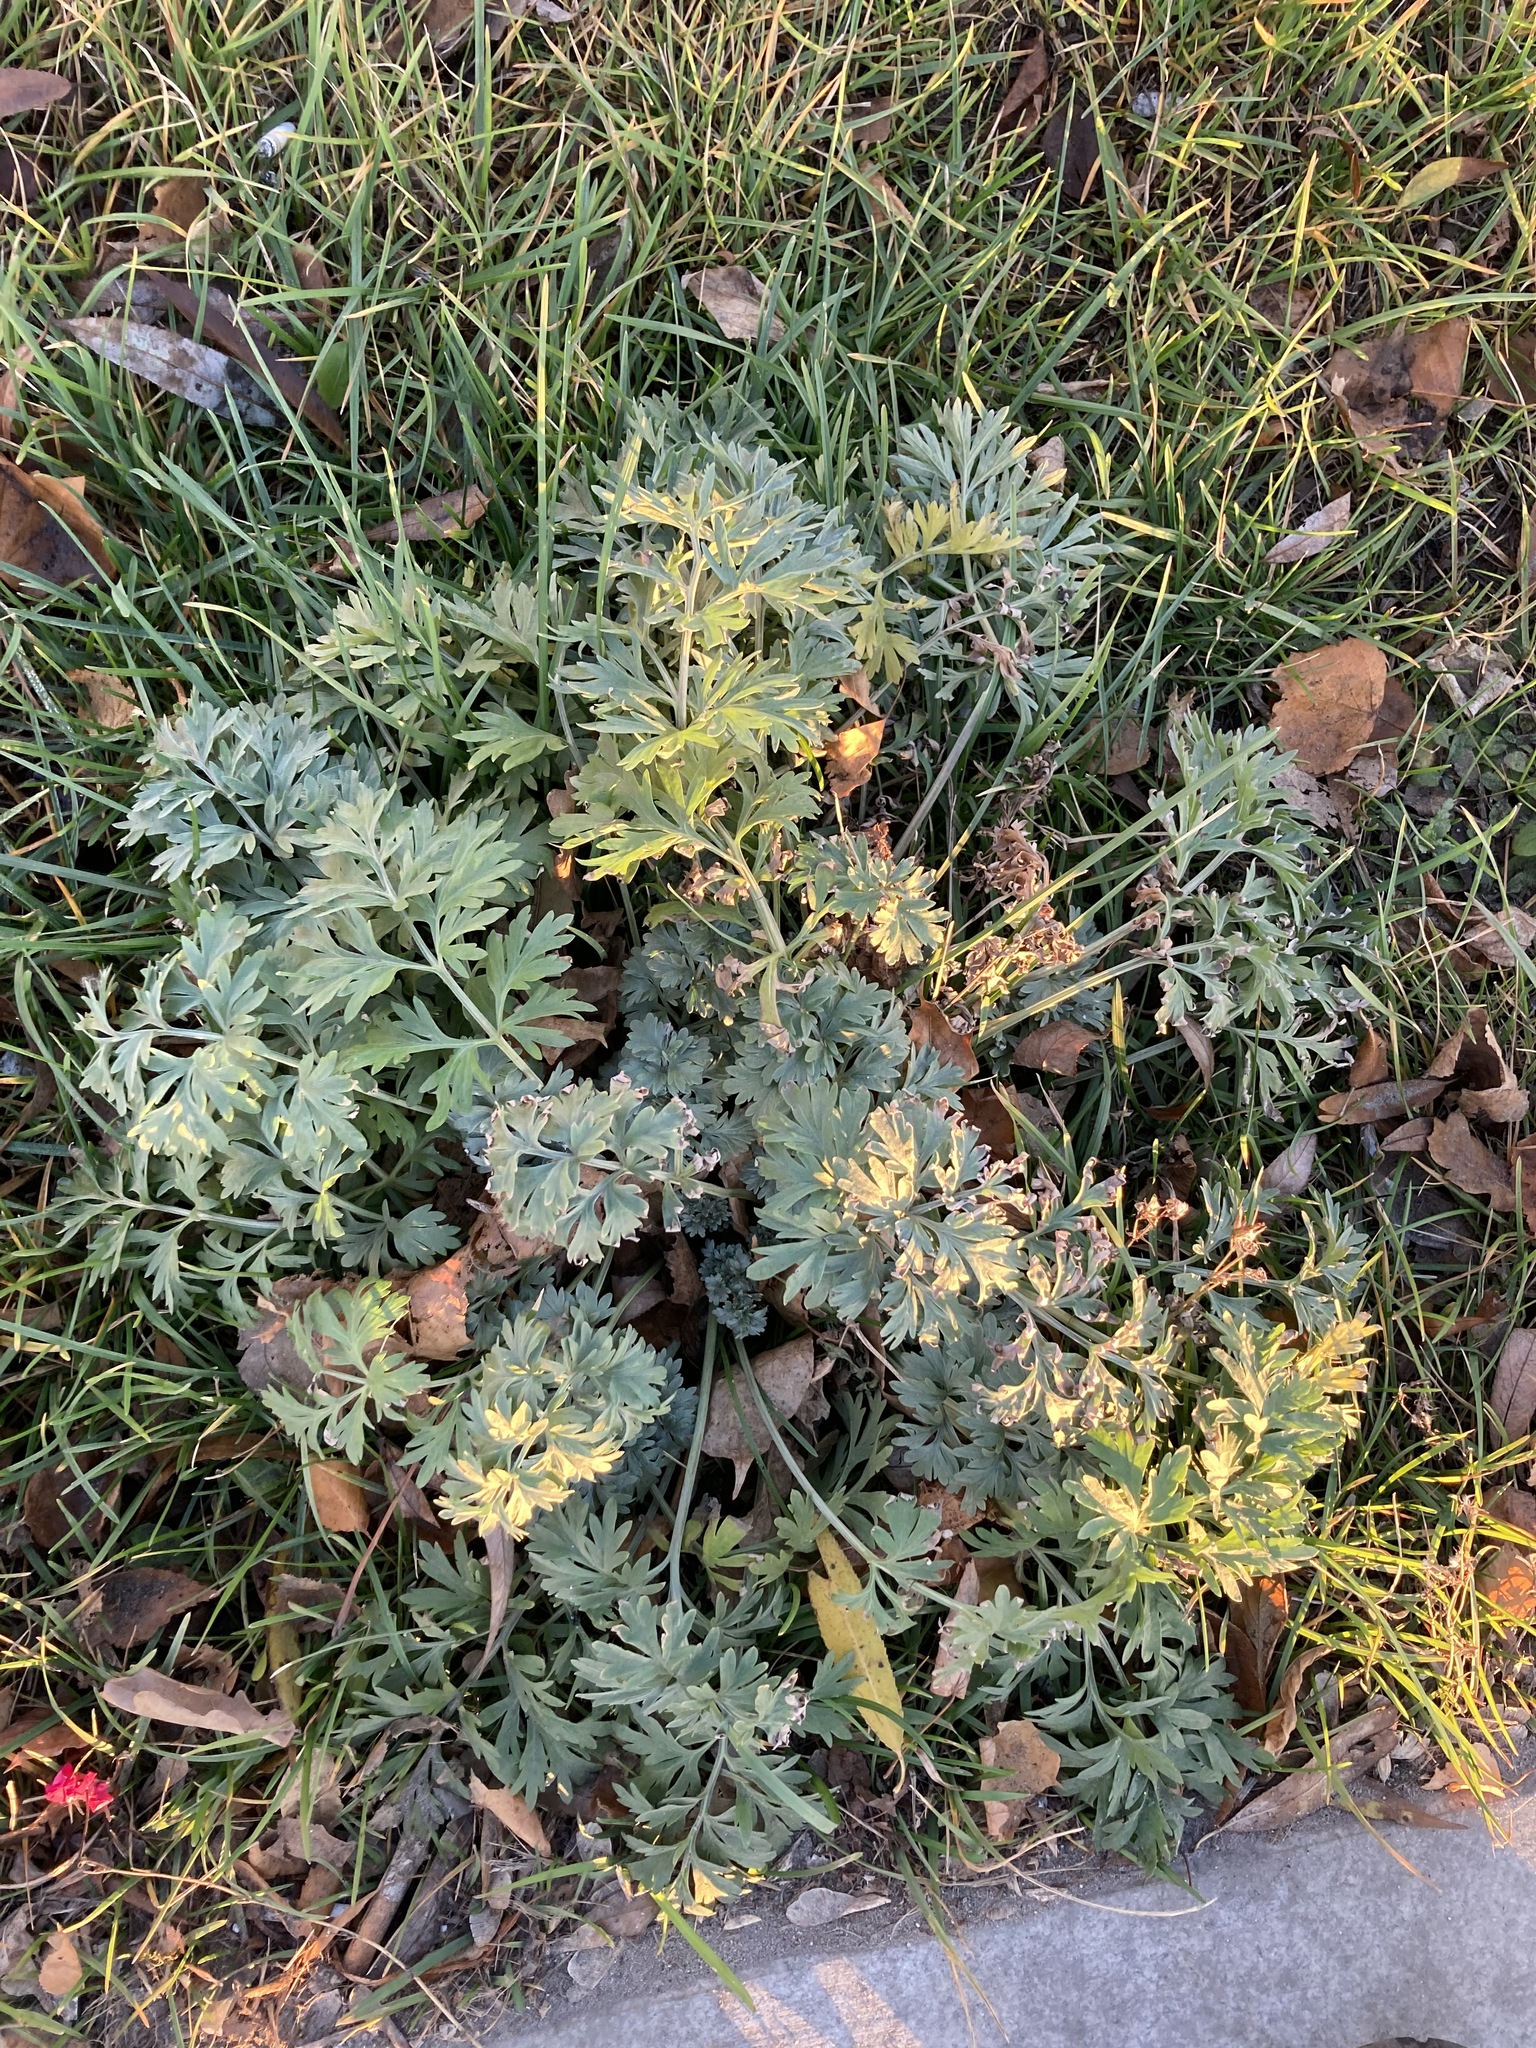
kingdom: Plantae
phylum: Tracheophyta
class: Magnoliopsida
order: Asterales
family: Asteraceae
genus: Artemisia
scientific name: Artemisia absinthium
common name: Wormwood
